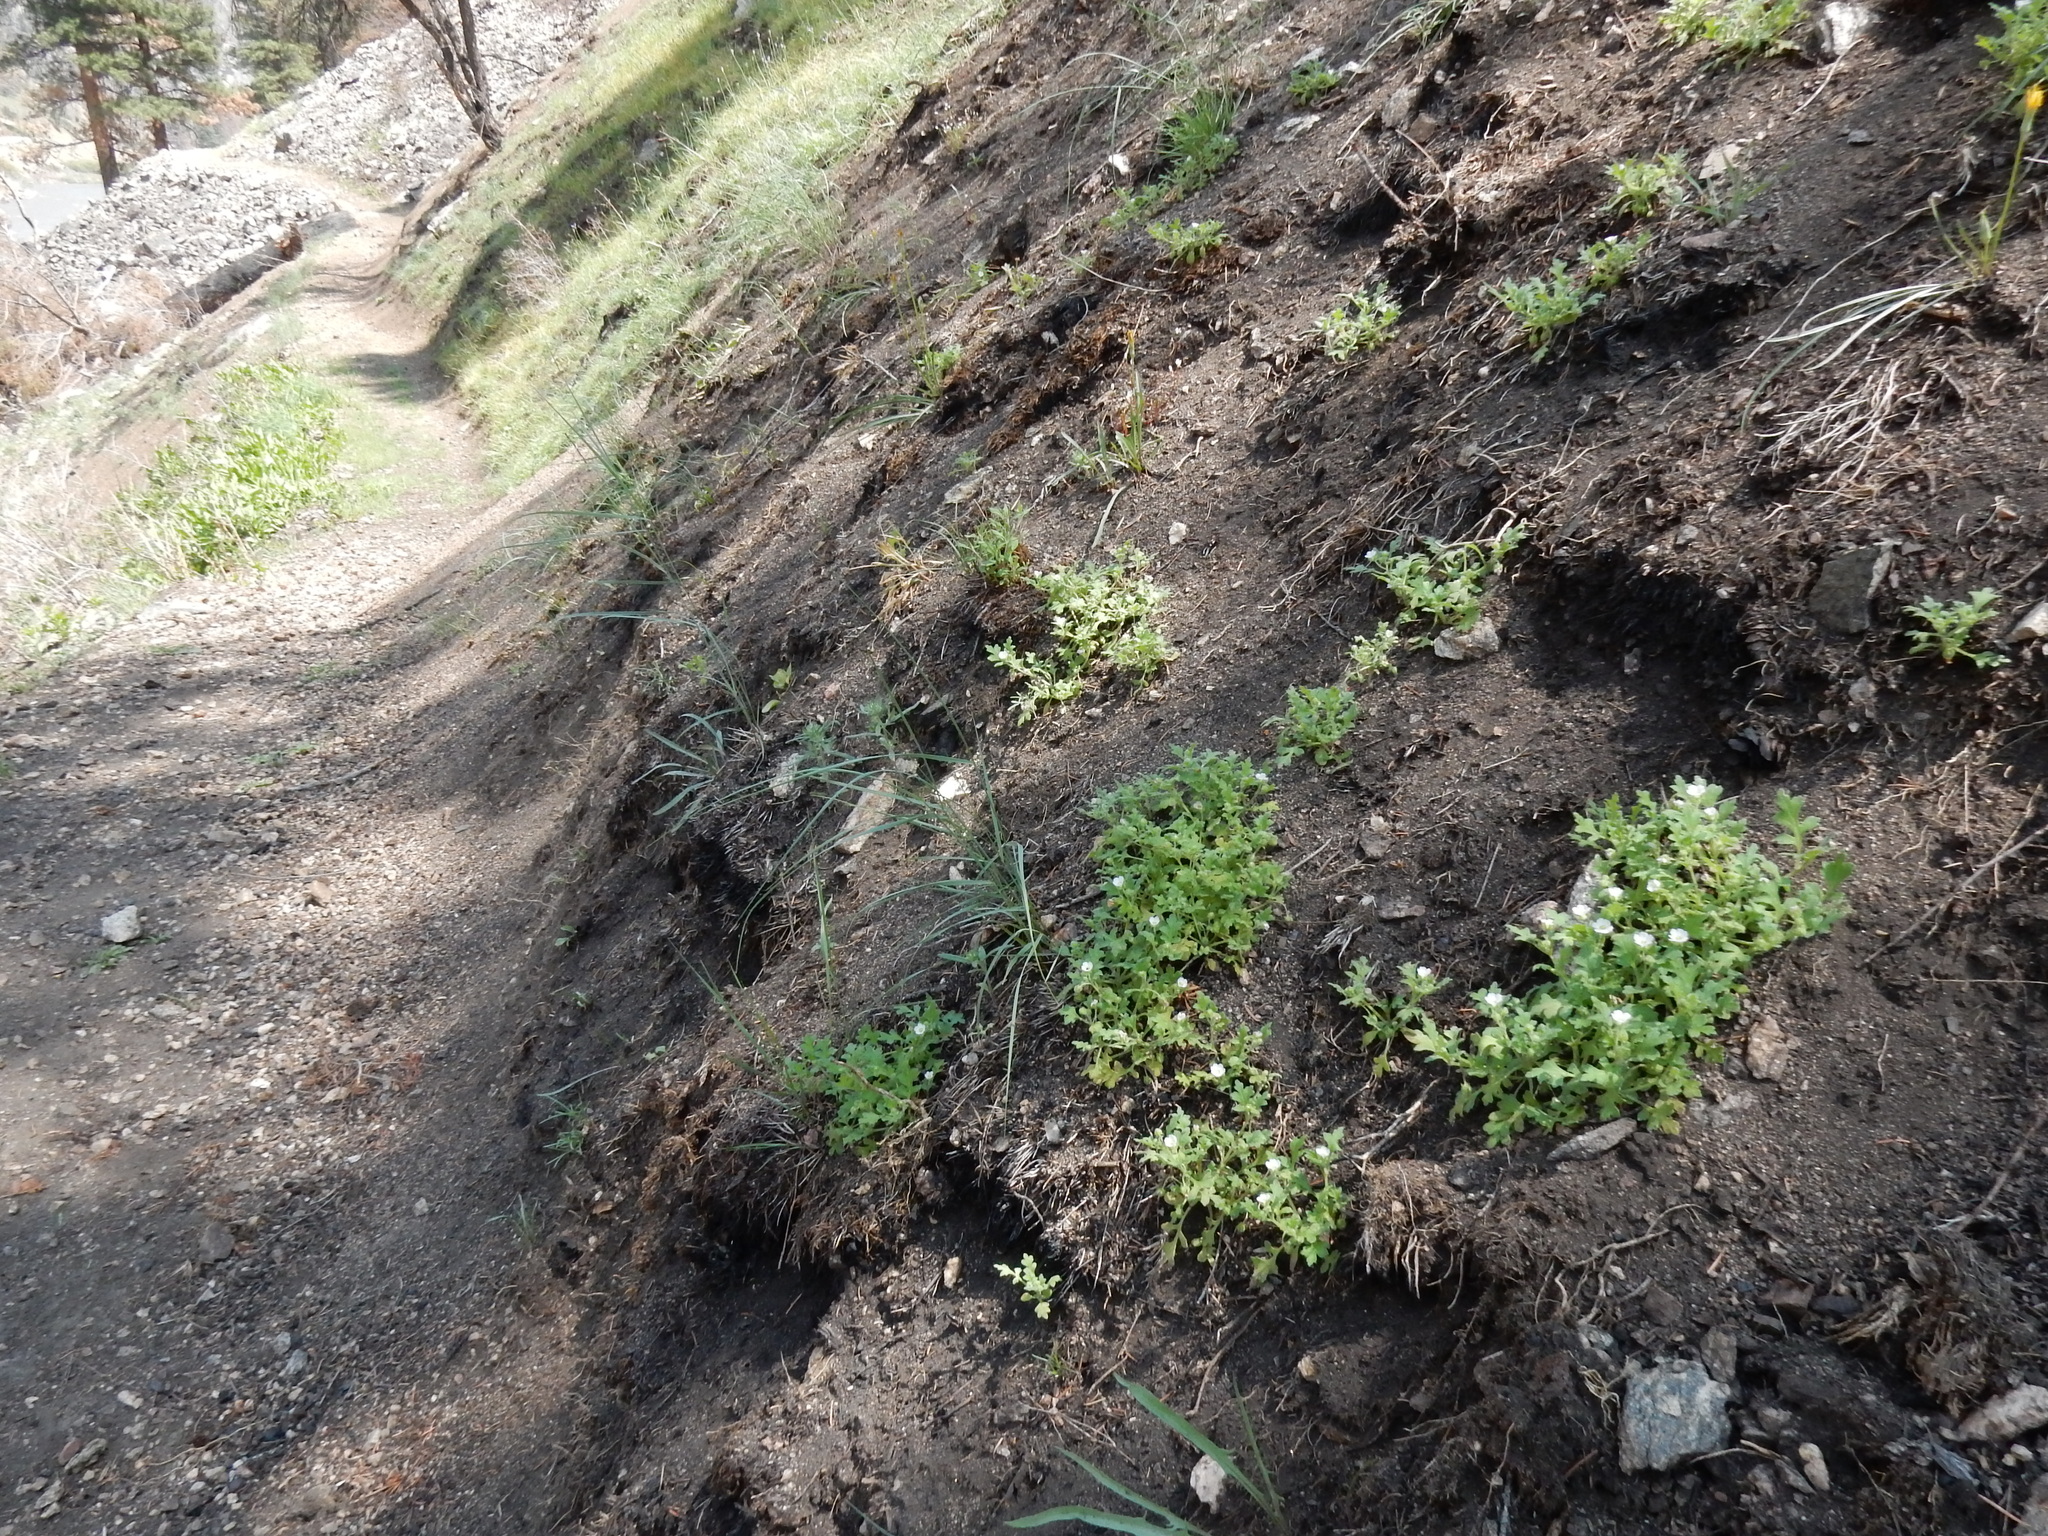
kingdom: Plantae
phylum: Tracheophyta
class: Magnoliopsida
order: Boraginales
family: Hydrophyllaceae
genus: Nemophila
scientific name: Nemophila kirtleyi
